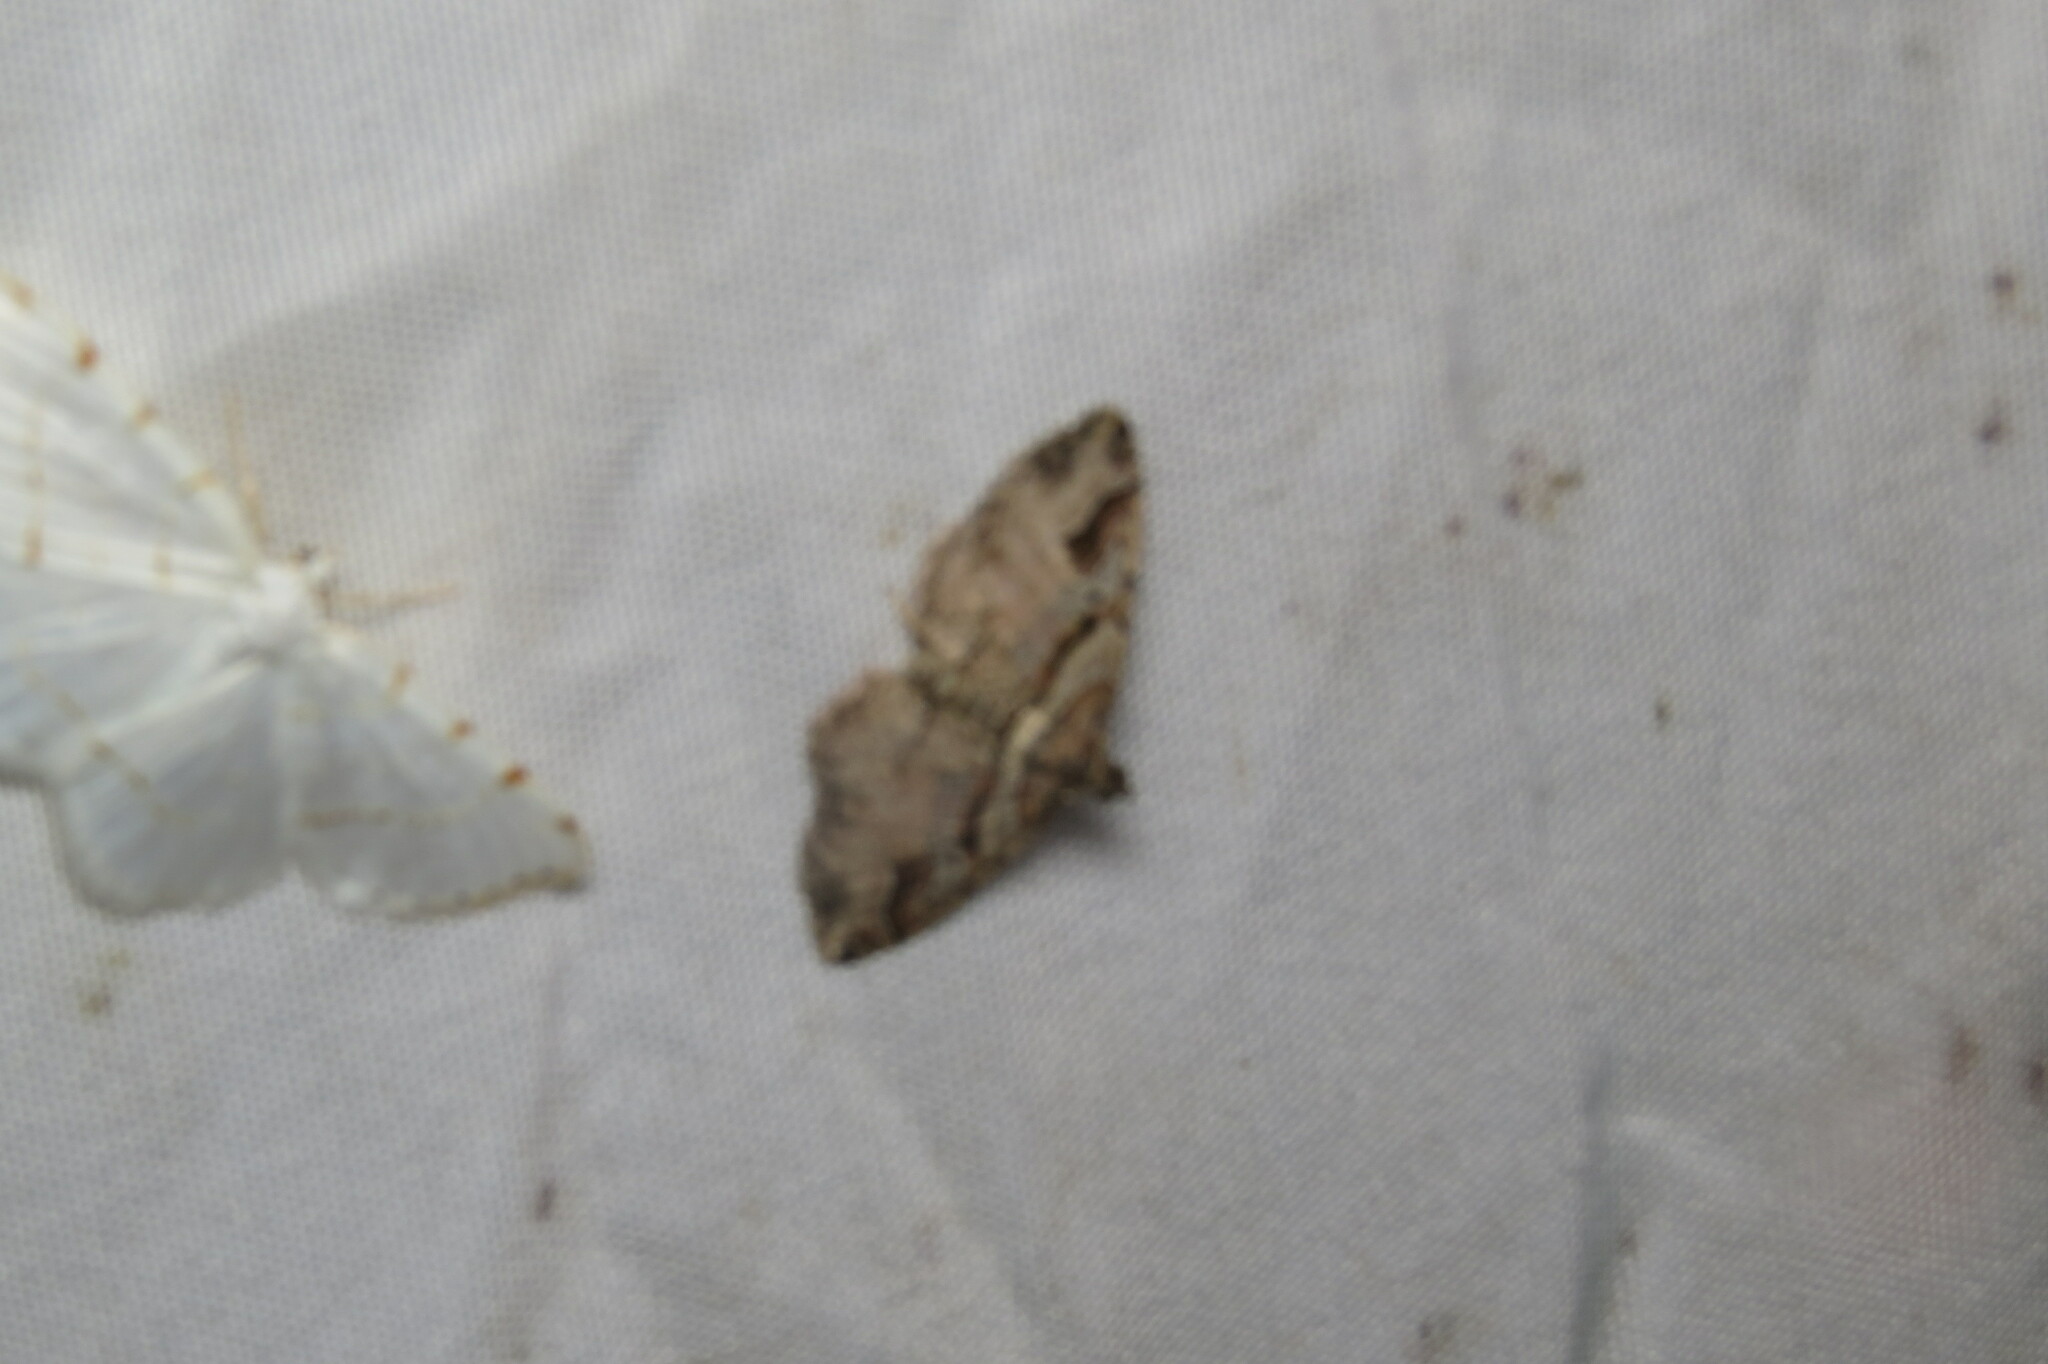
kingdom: Animalia
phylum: Arthropoda
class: Insecta
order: Lepidoptera
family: Geometridae
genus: Costaconvexa
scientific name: Costaconvexa centrostrigaria
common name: Bent-line carpet
